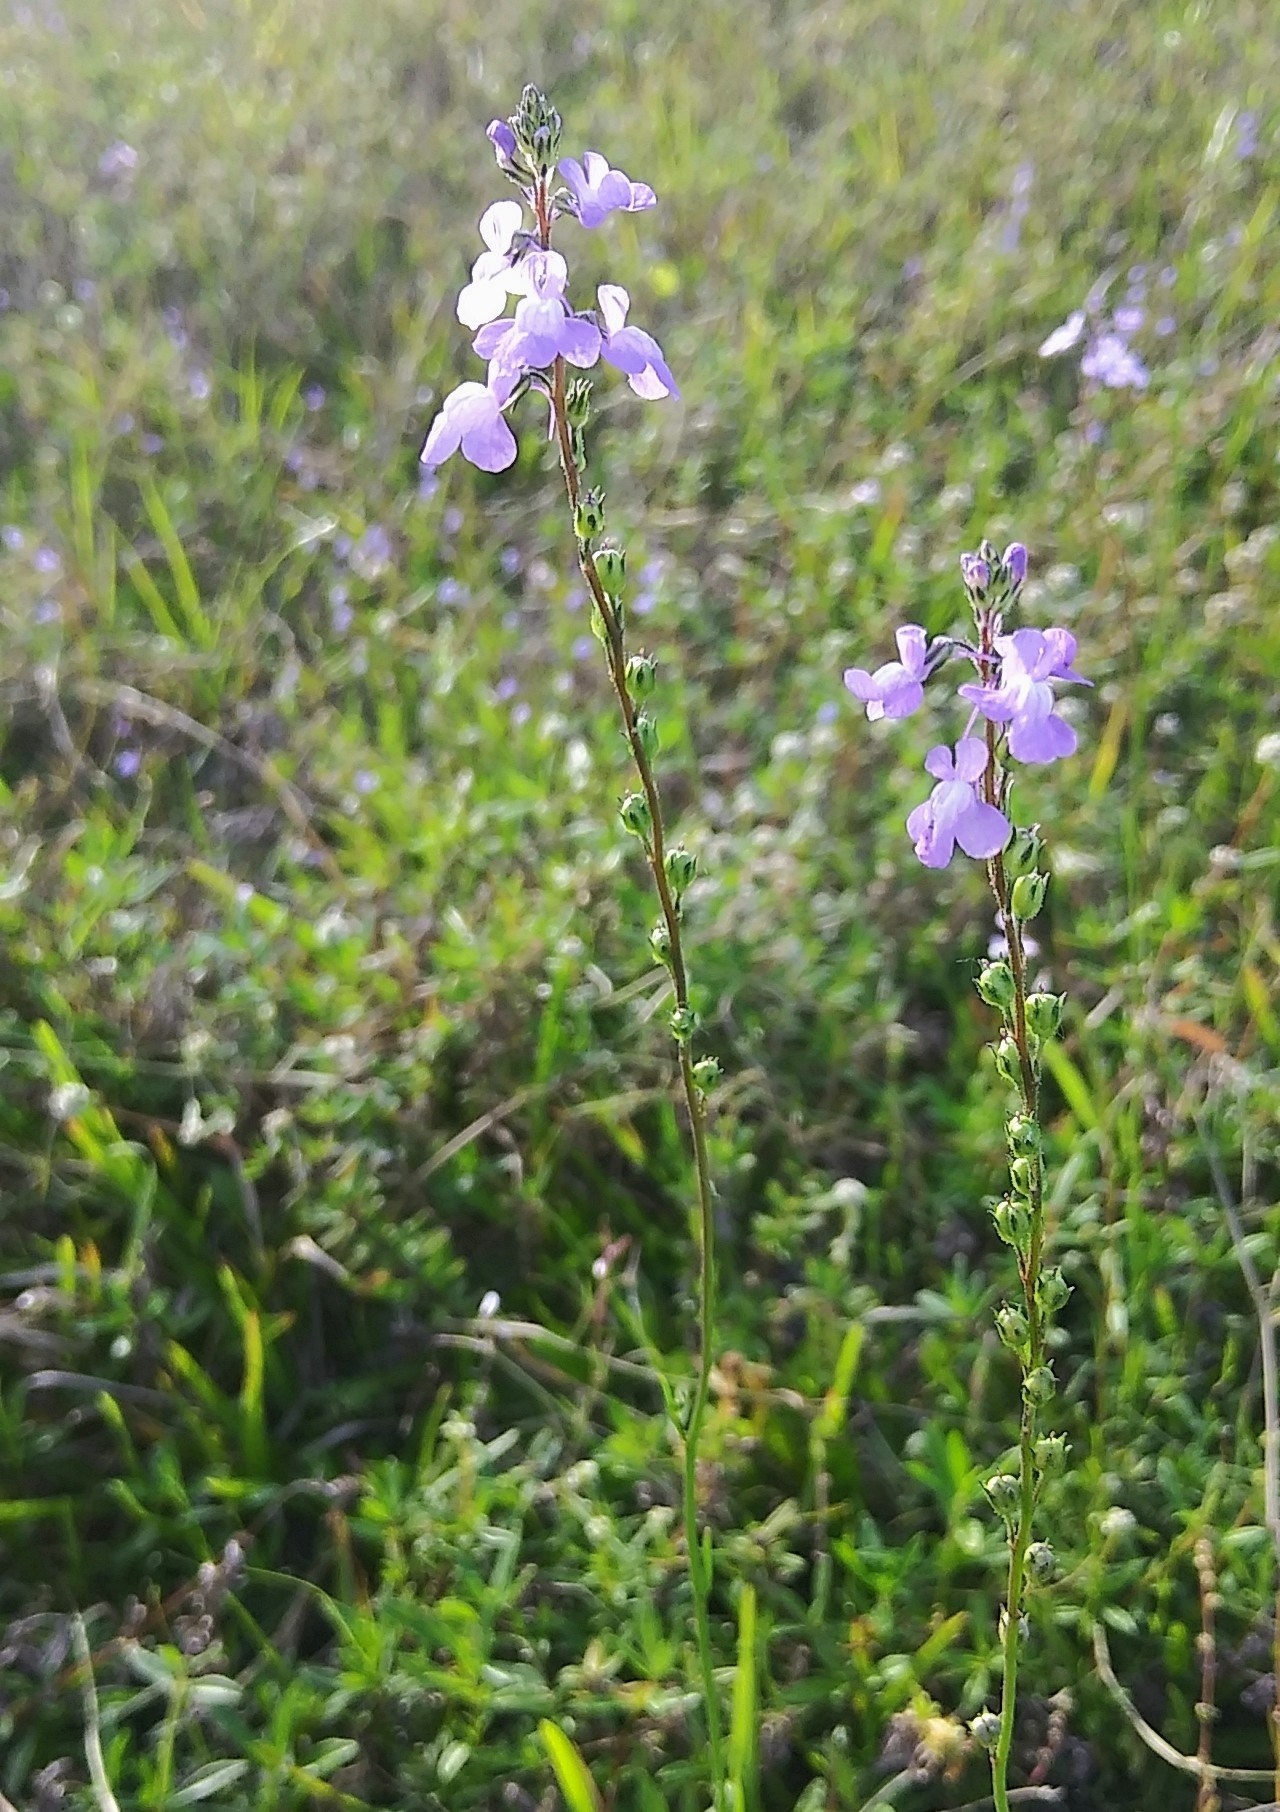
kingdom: Plantae
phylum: Tracheophyta
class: Magnoliopsida
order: Lamiales
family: Plantaginaceae
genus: Nuttallanthus
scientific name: Nuttallanthus canadensis
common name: Blue toadflax
